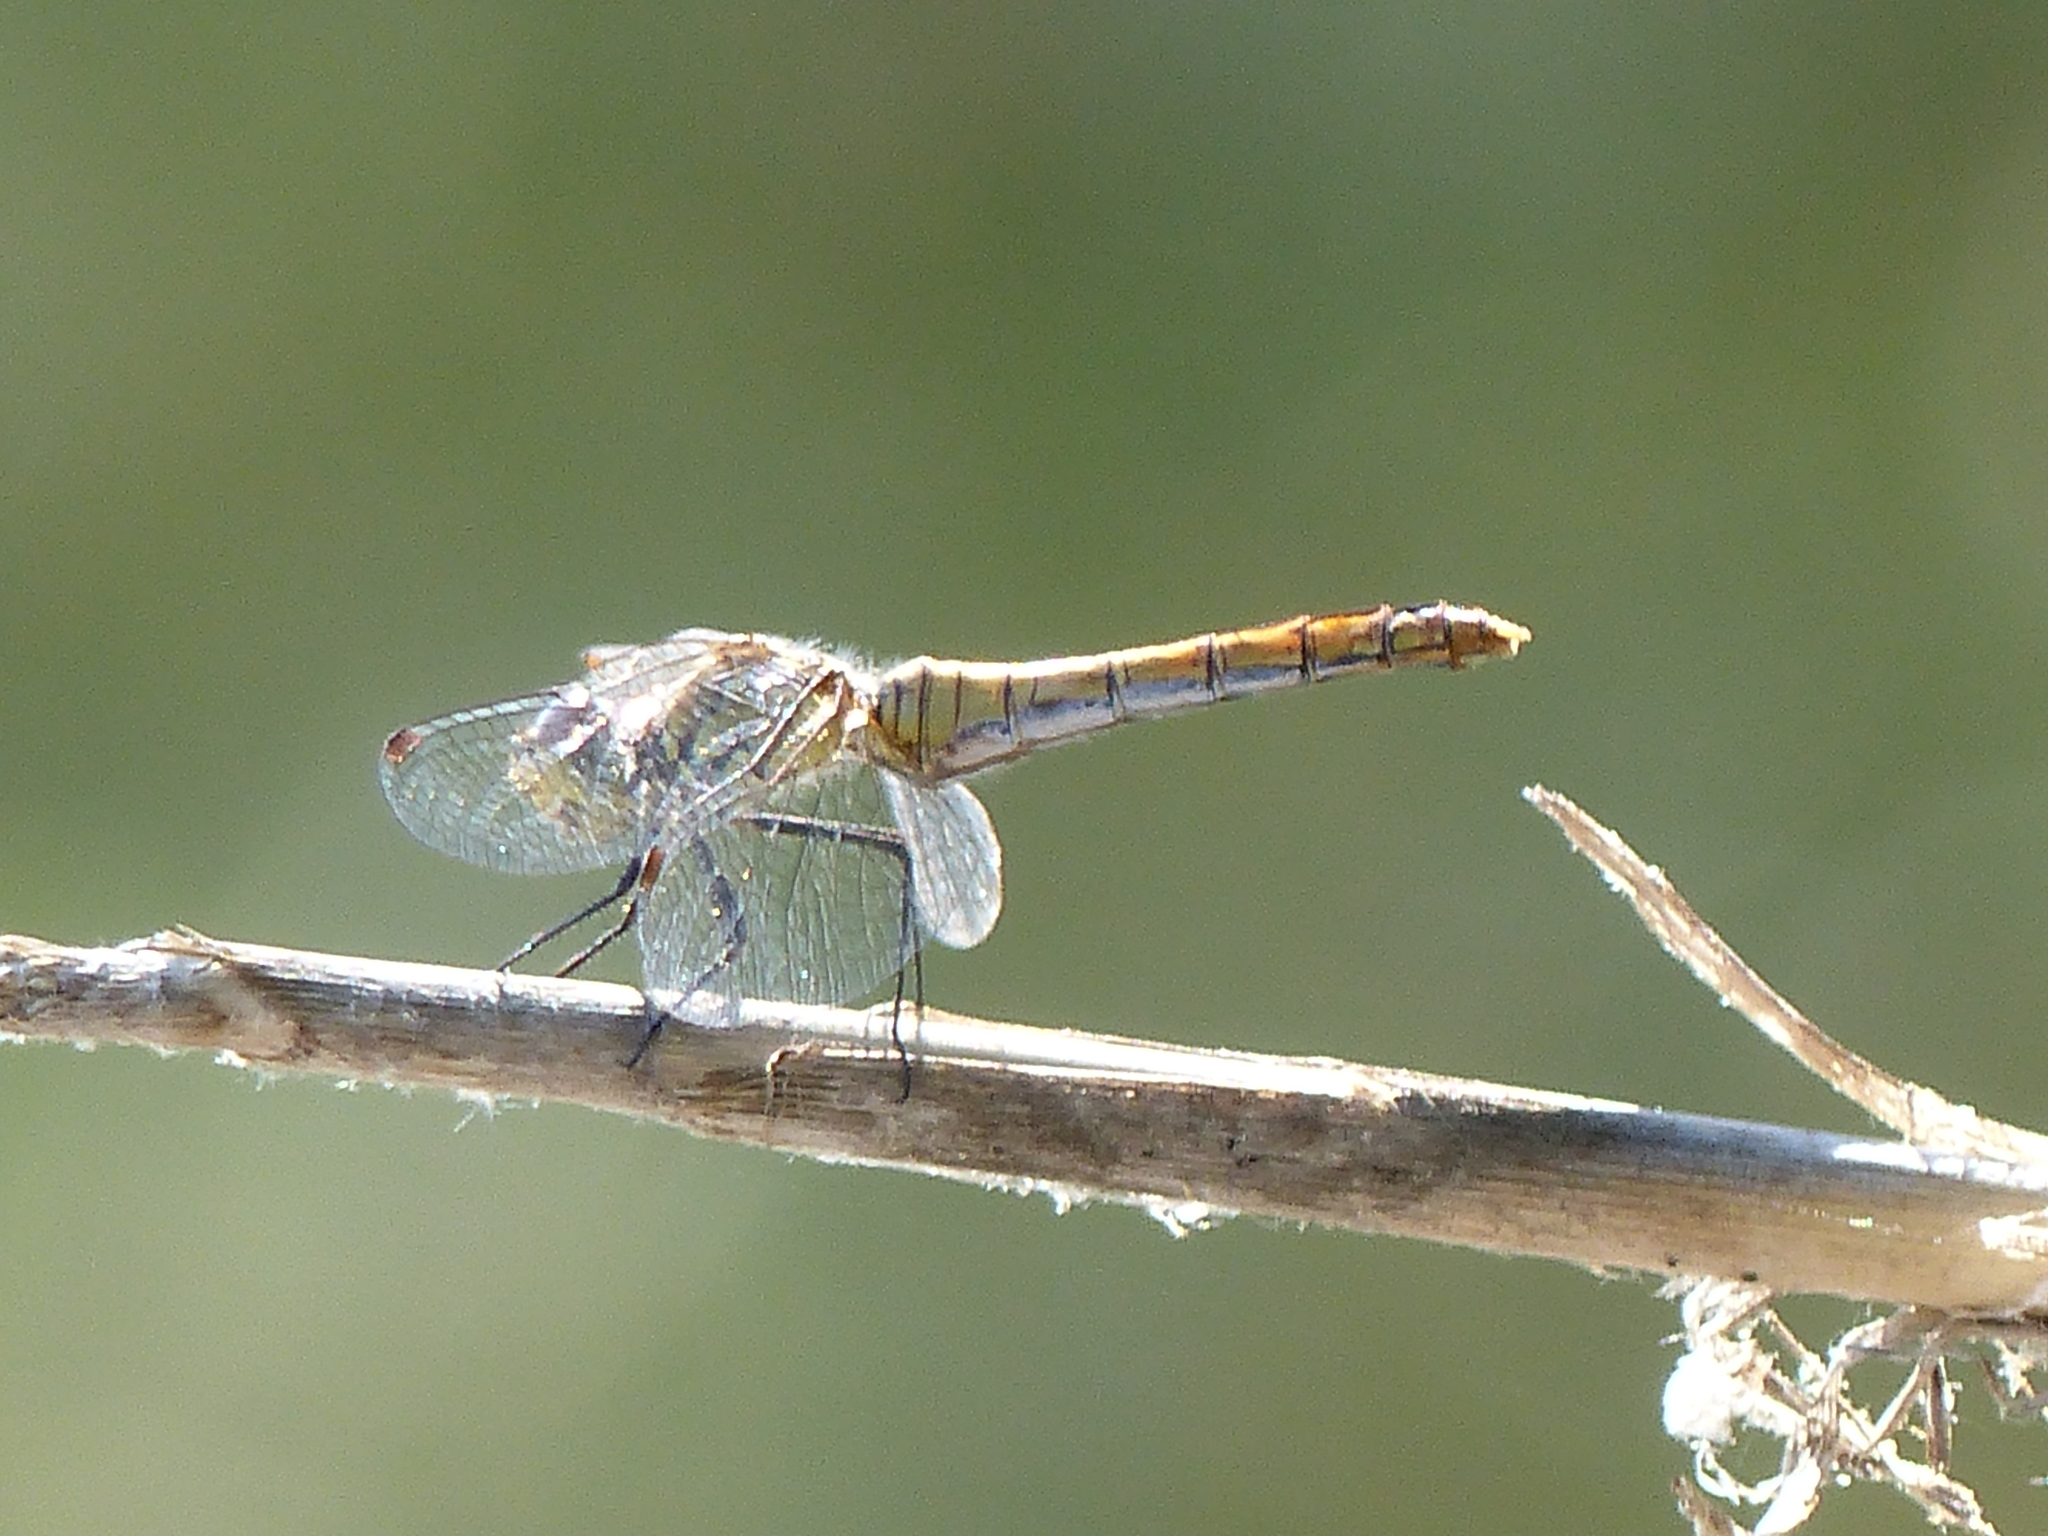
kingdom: Animalia
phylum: Arthropoda
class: Insecta
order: Odonata
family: Libellulidae
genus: Sympetrum
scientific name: Sympetrum sanguineum
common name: Ruddy darter
